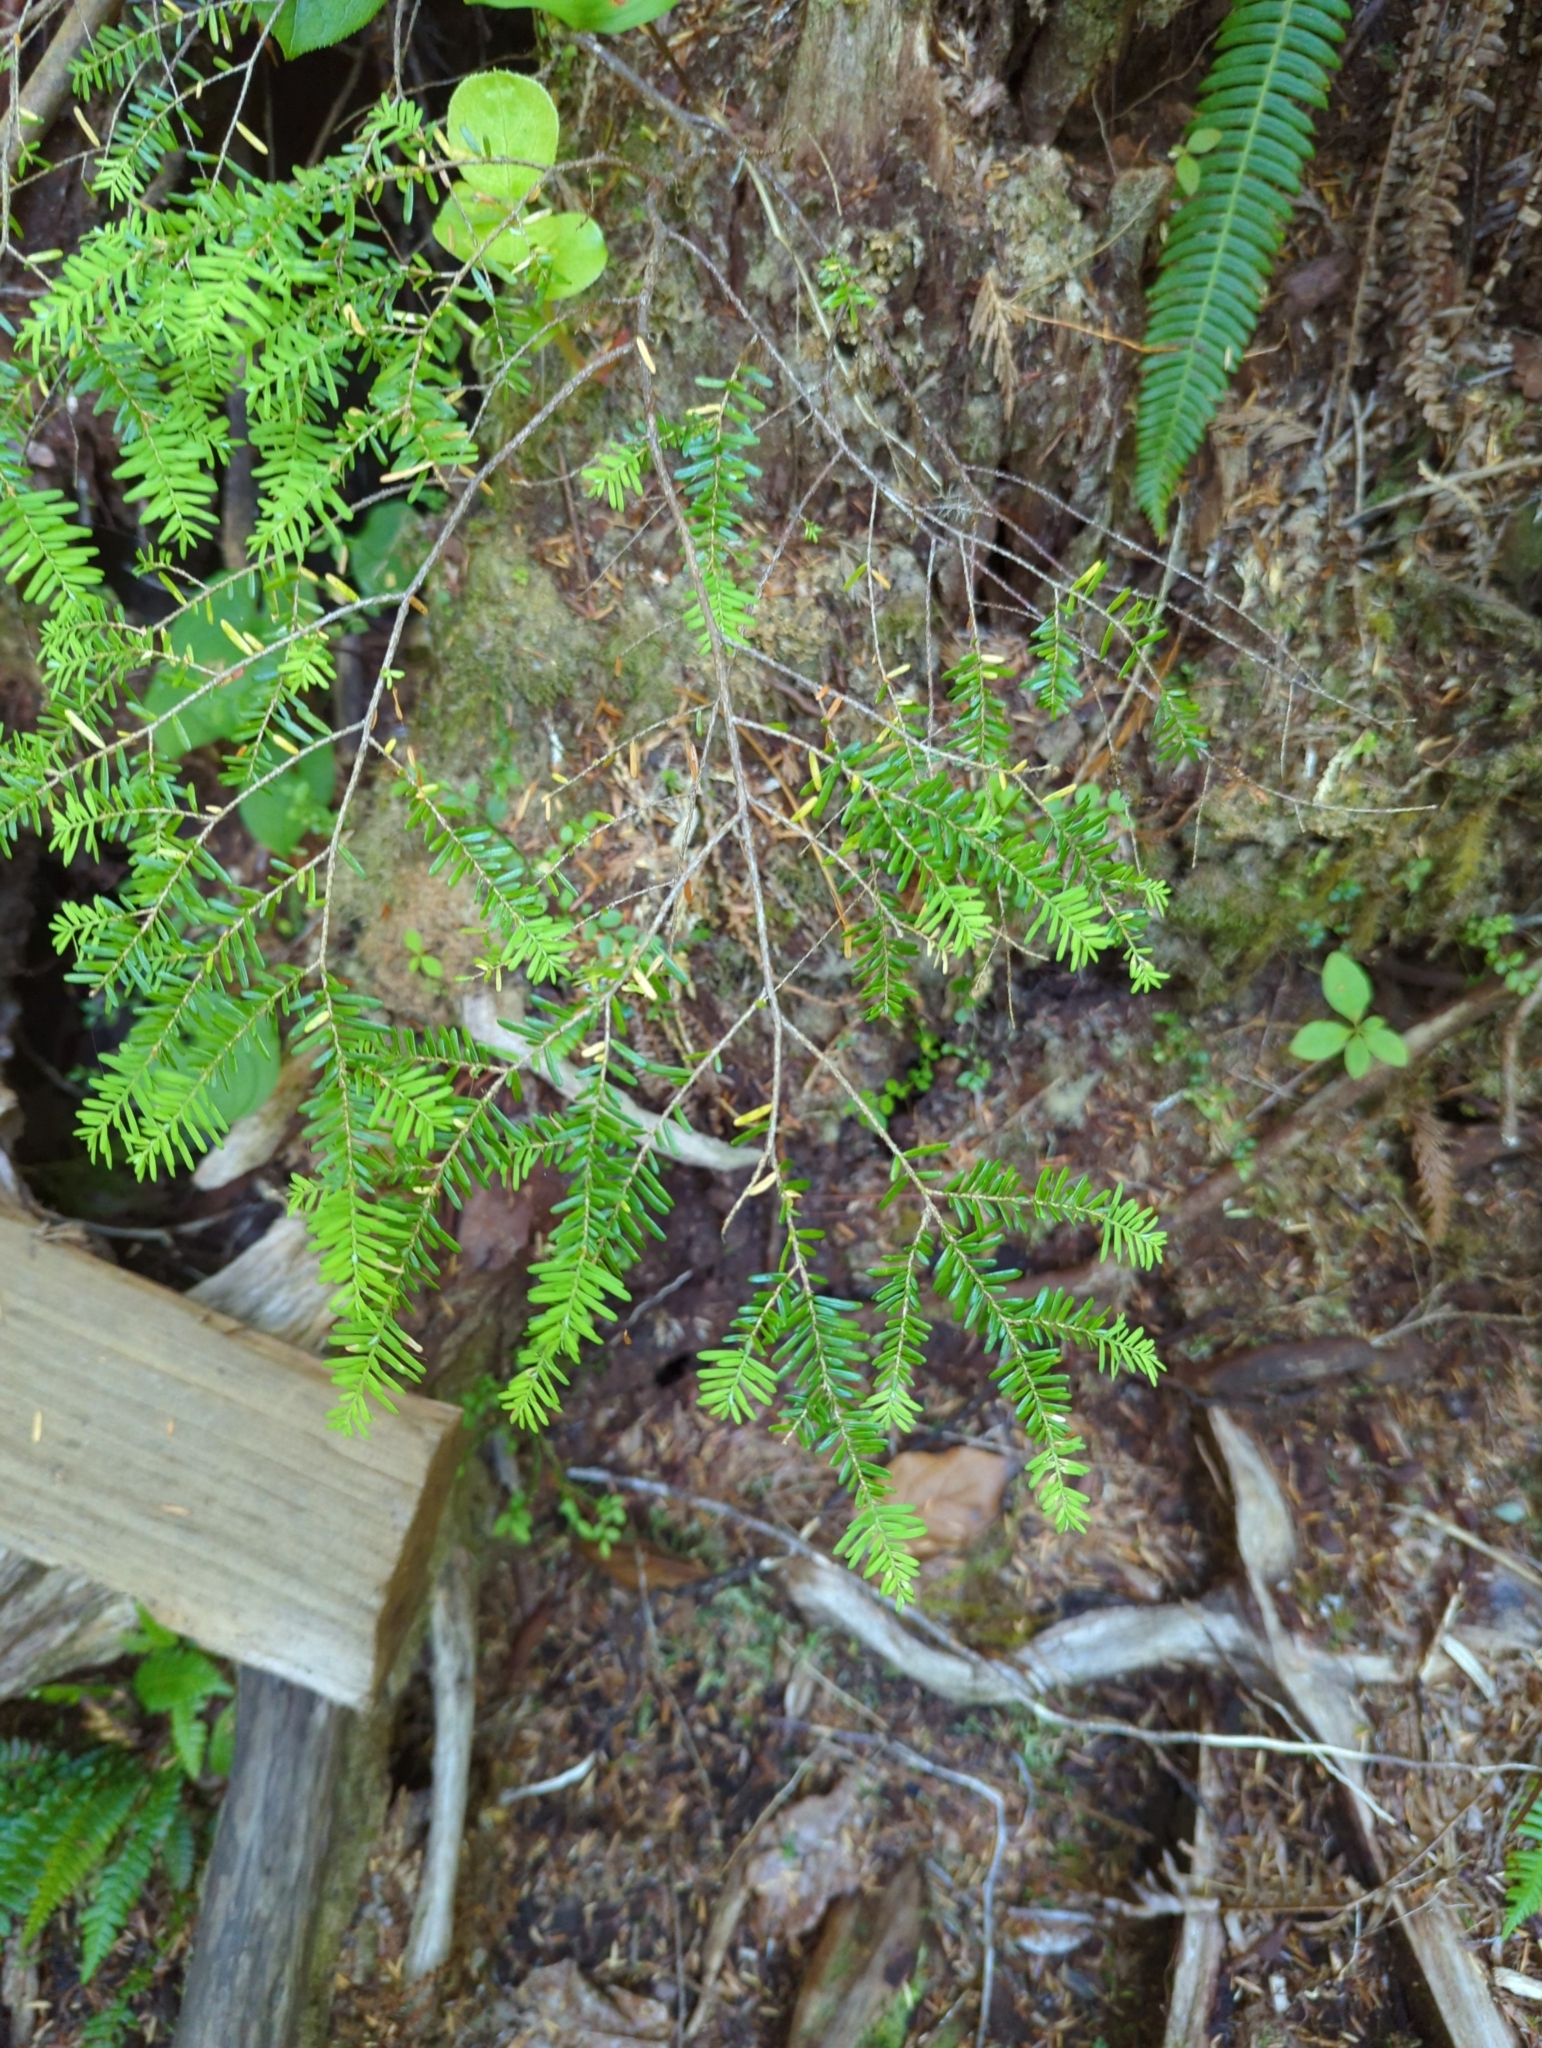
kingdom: Plantae
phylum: Tracheophyta
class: Pinopsida
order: Pinales
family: Pinaceae
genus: Tsuga
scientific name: Tsuga heterophylla
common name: Western hemlock
